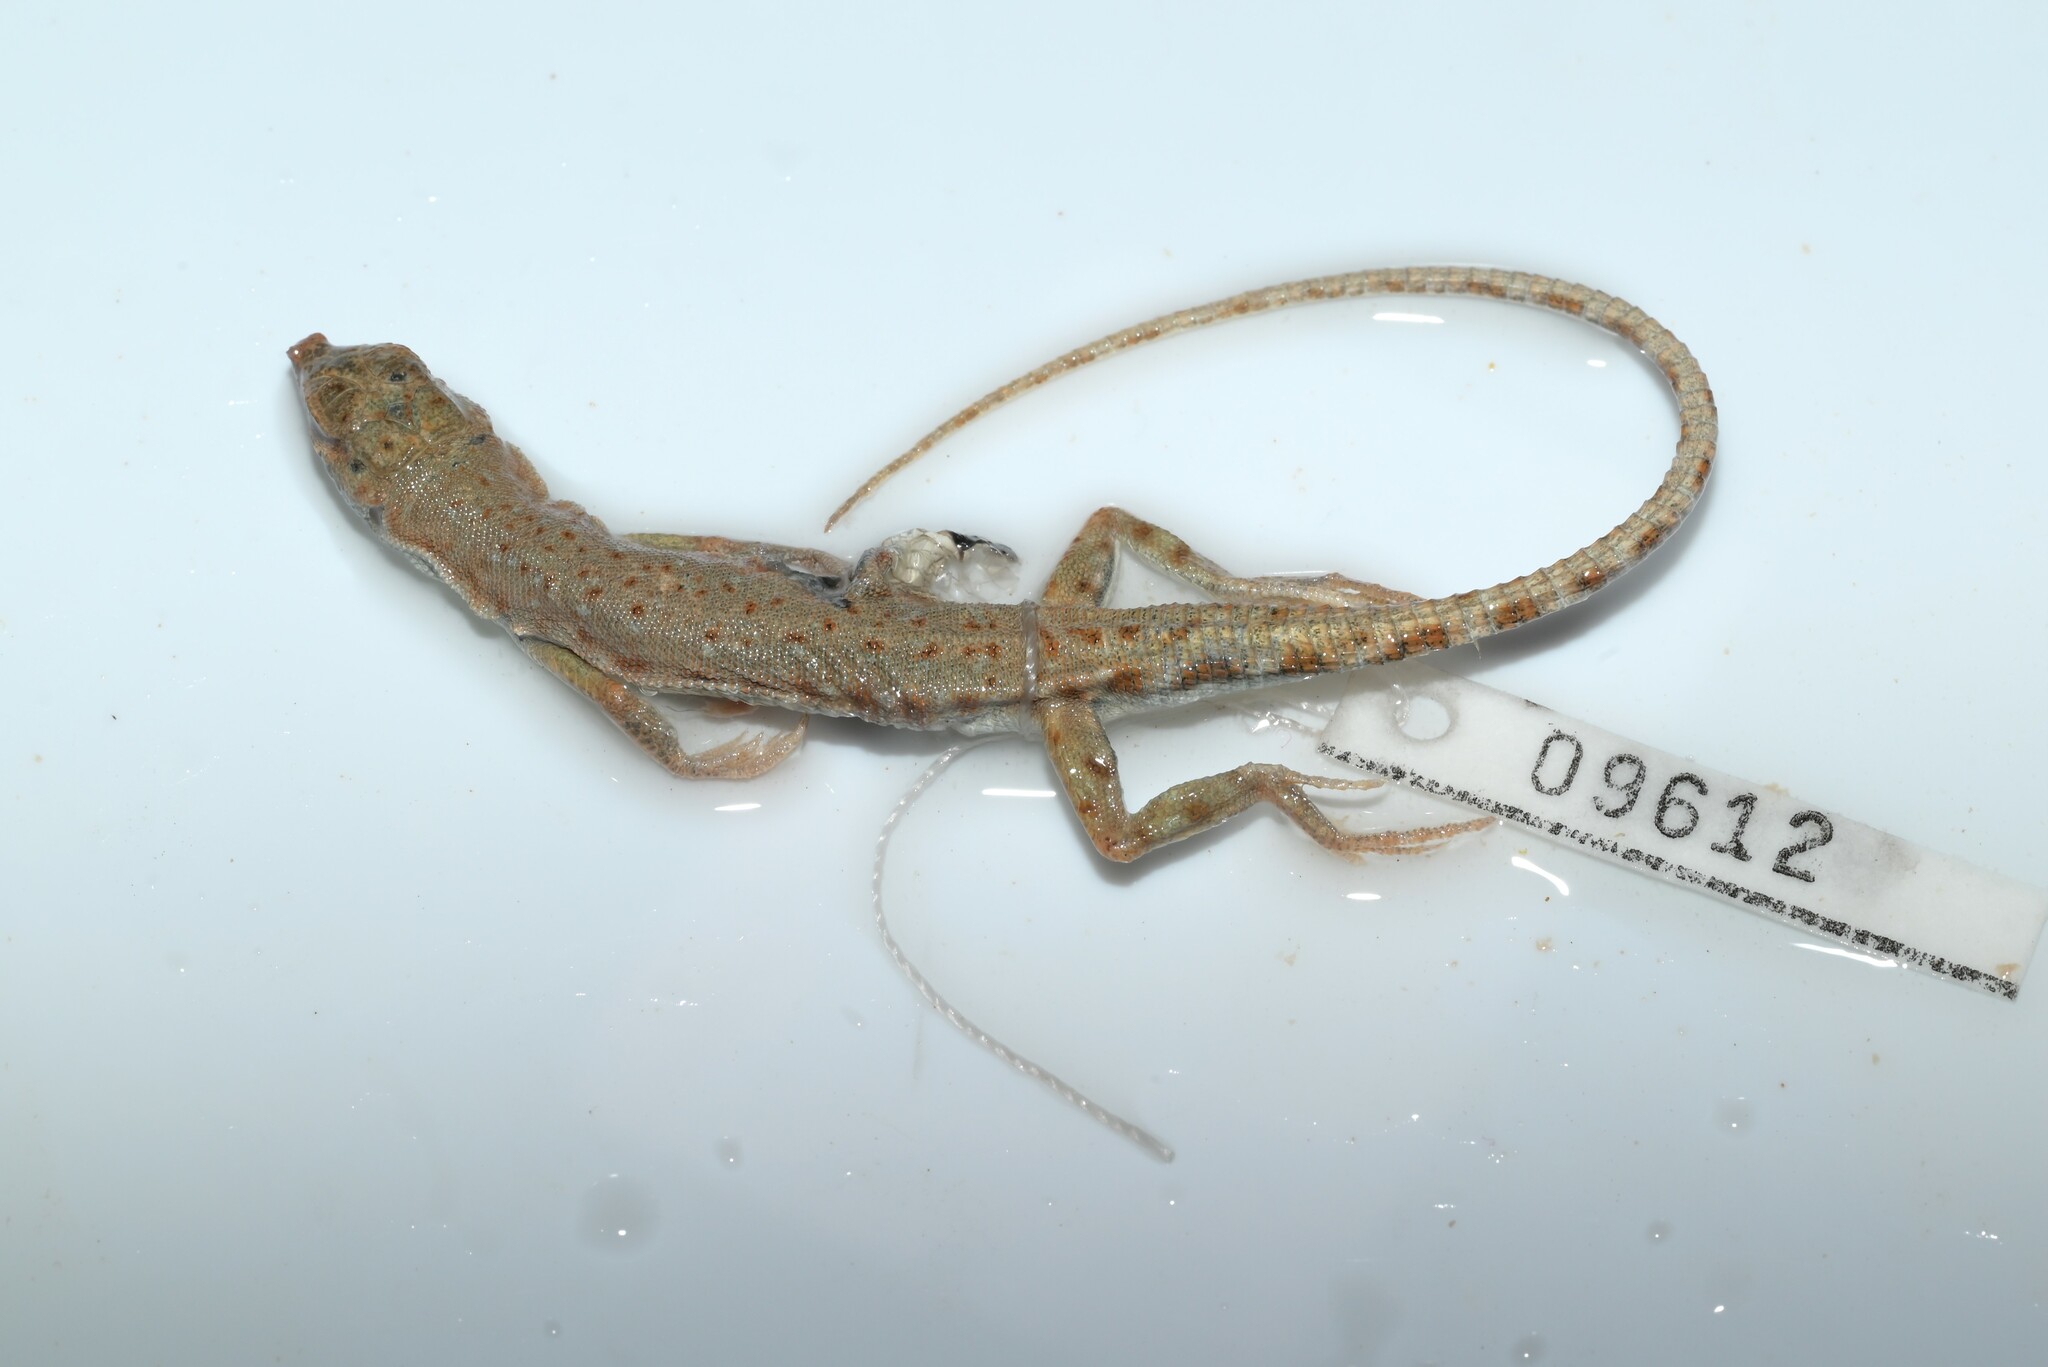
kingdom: Animalia
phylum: Chordata
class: Squamata
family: Lacertidae
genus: Mesalina
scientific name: Mesalina brevirostris
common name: Blanford's short-nosed desert lizard
